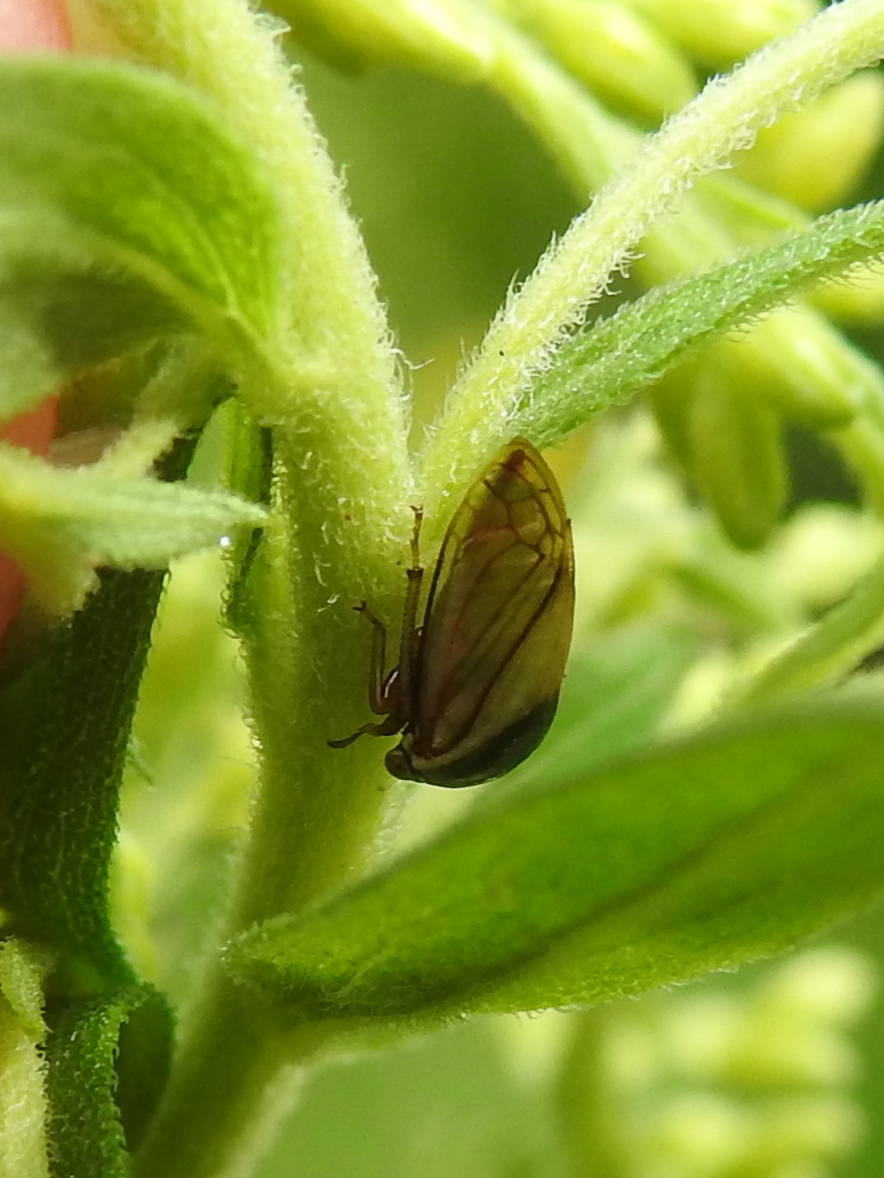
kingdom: Animalia
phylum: Arthropoda
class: Insecta
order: Hemiptera
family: Membracidae
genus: Acutalis
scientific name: Acutalis tartarea
